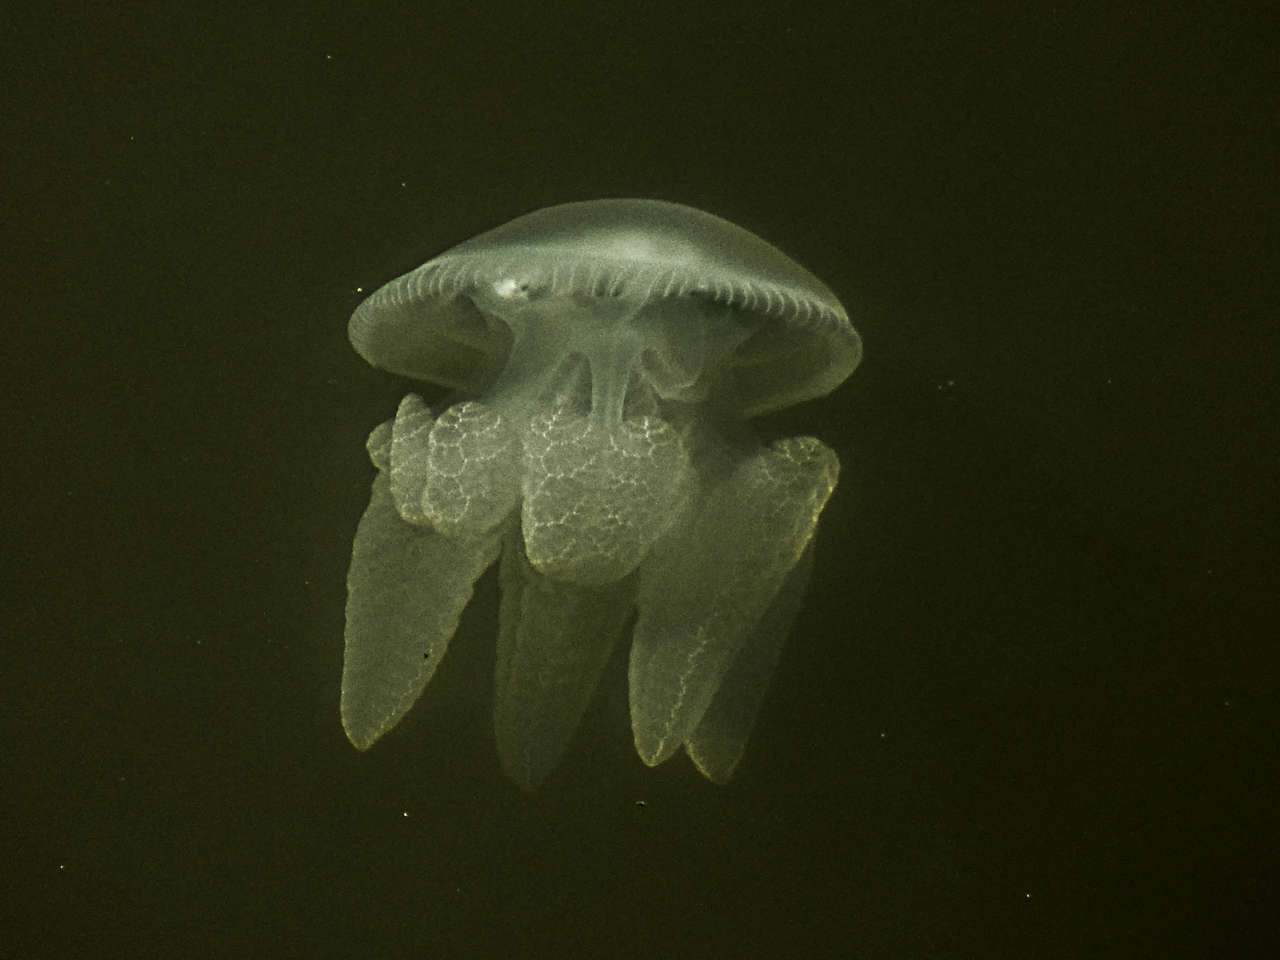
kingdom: Animalia
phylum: Cnidaria
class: Scyphozoa
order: Rhizostomeae
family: Catostylidae
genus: Catostylus
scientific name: Catostylus mosaicus
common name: Blue blubber
